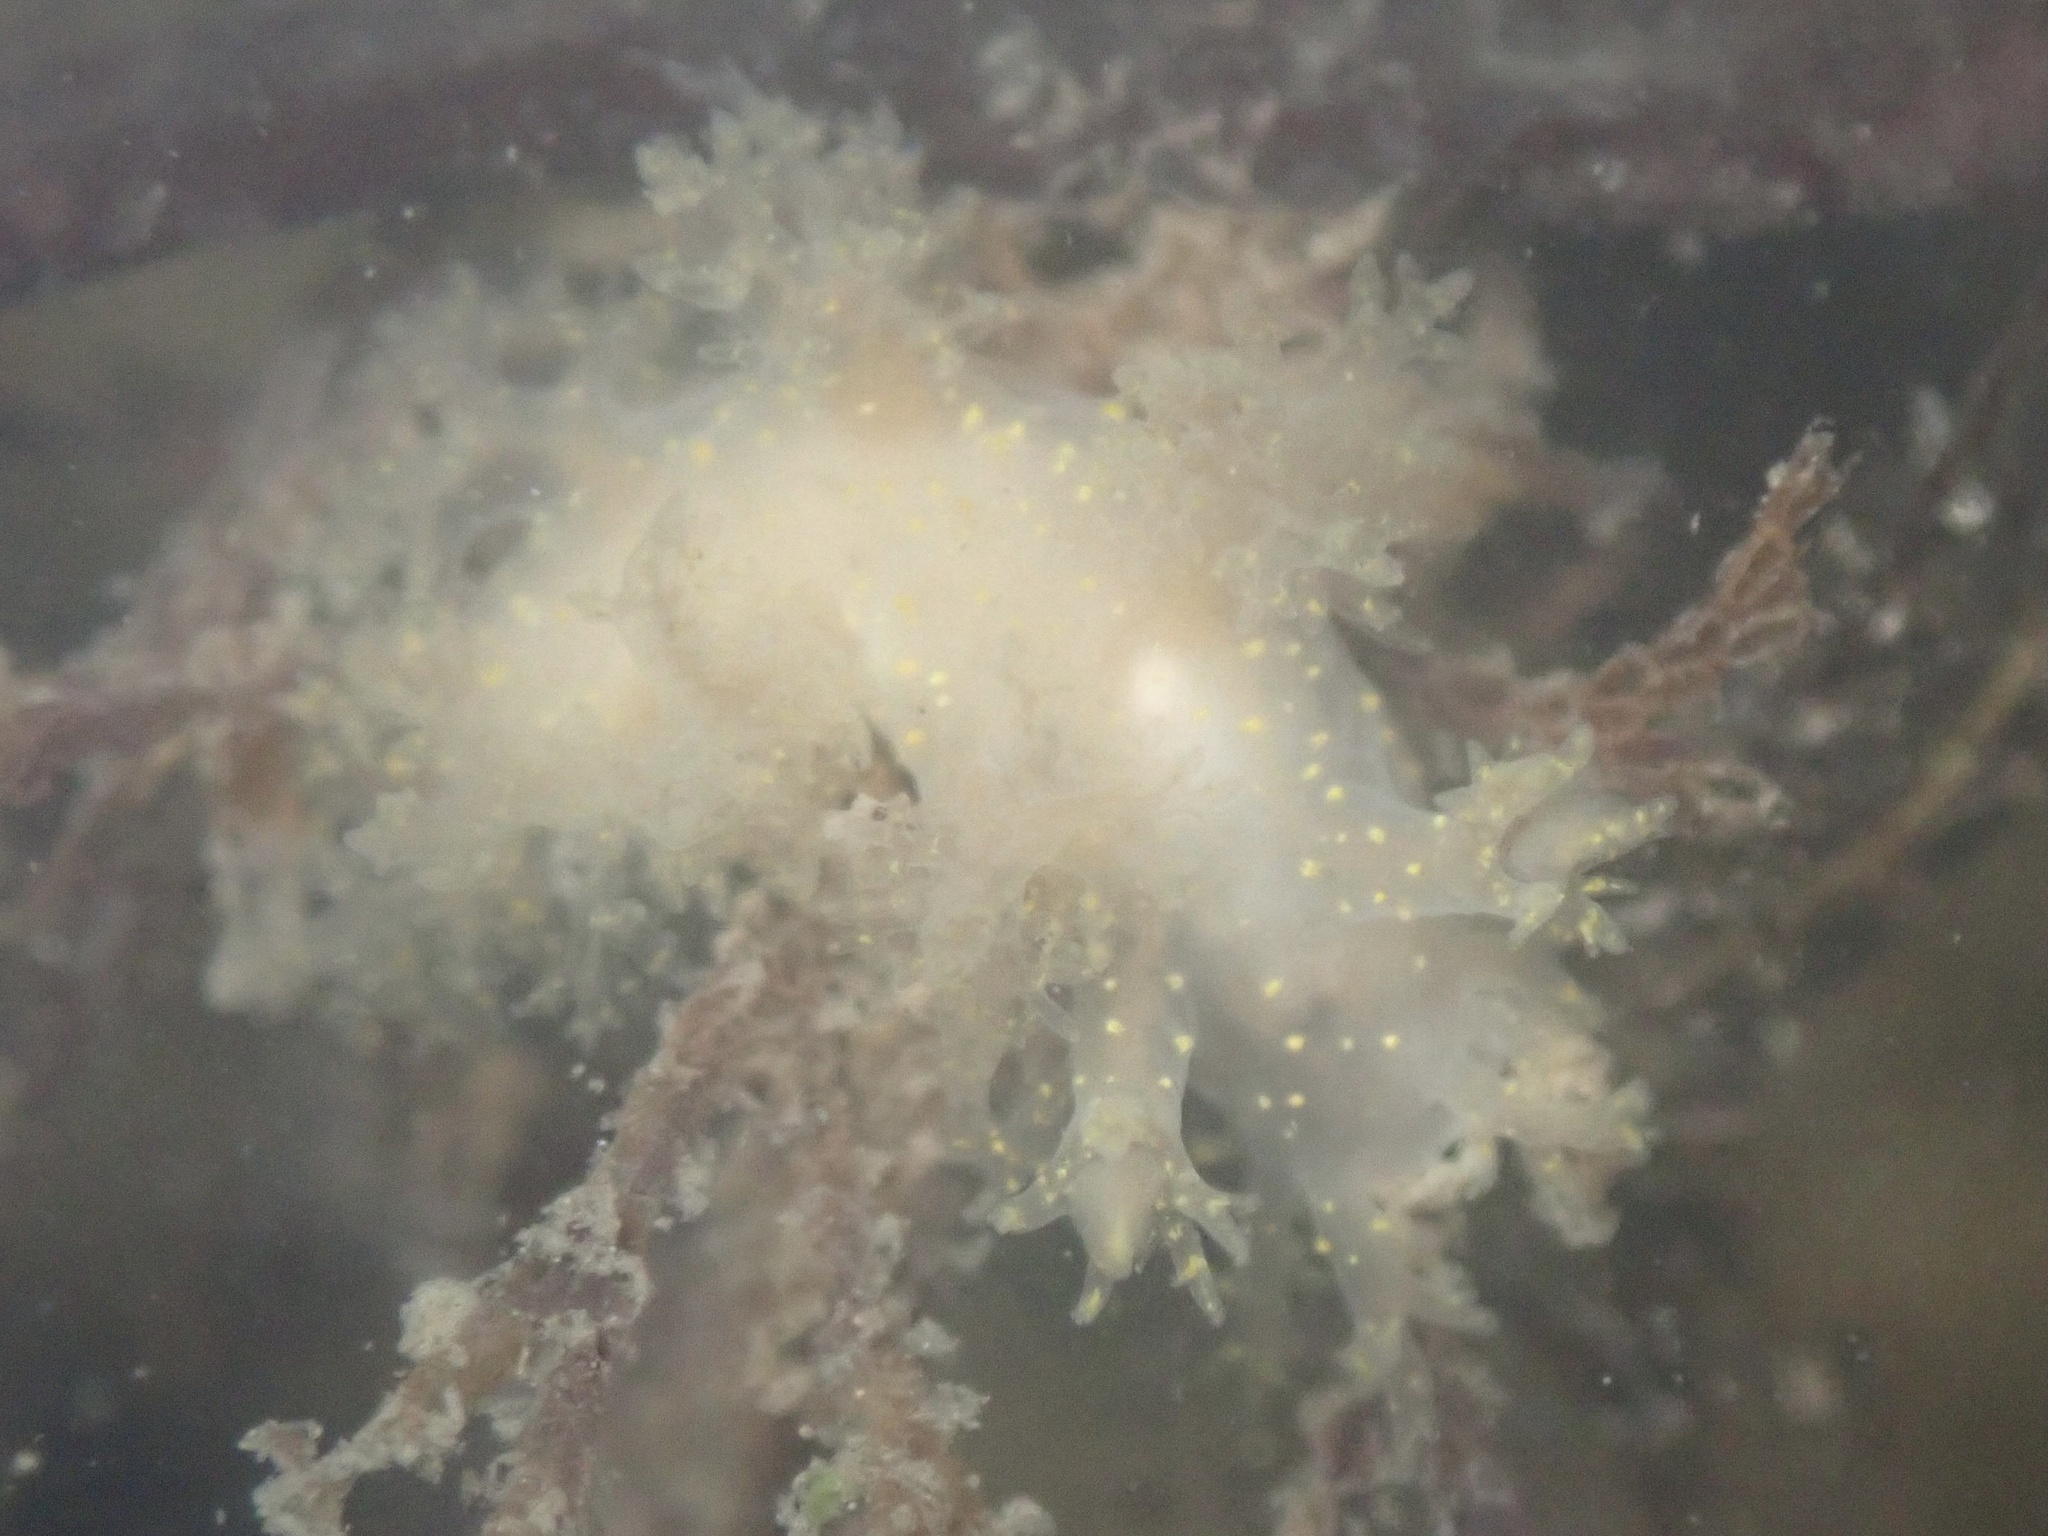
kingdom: Animalia
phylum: Mollusca
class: Gastropoda
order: Nudibranchia
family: Dendronotidae
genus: Dendronotus
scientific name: Dendronotus venustus
